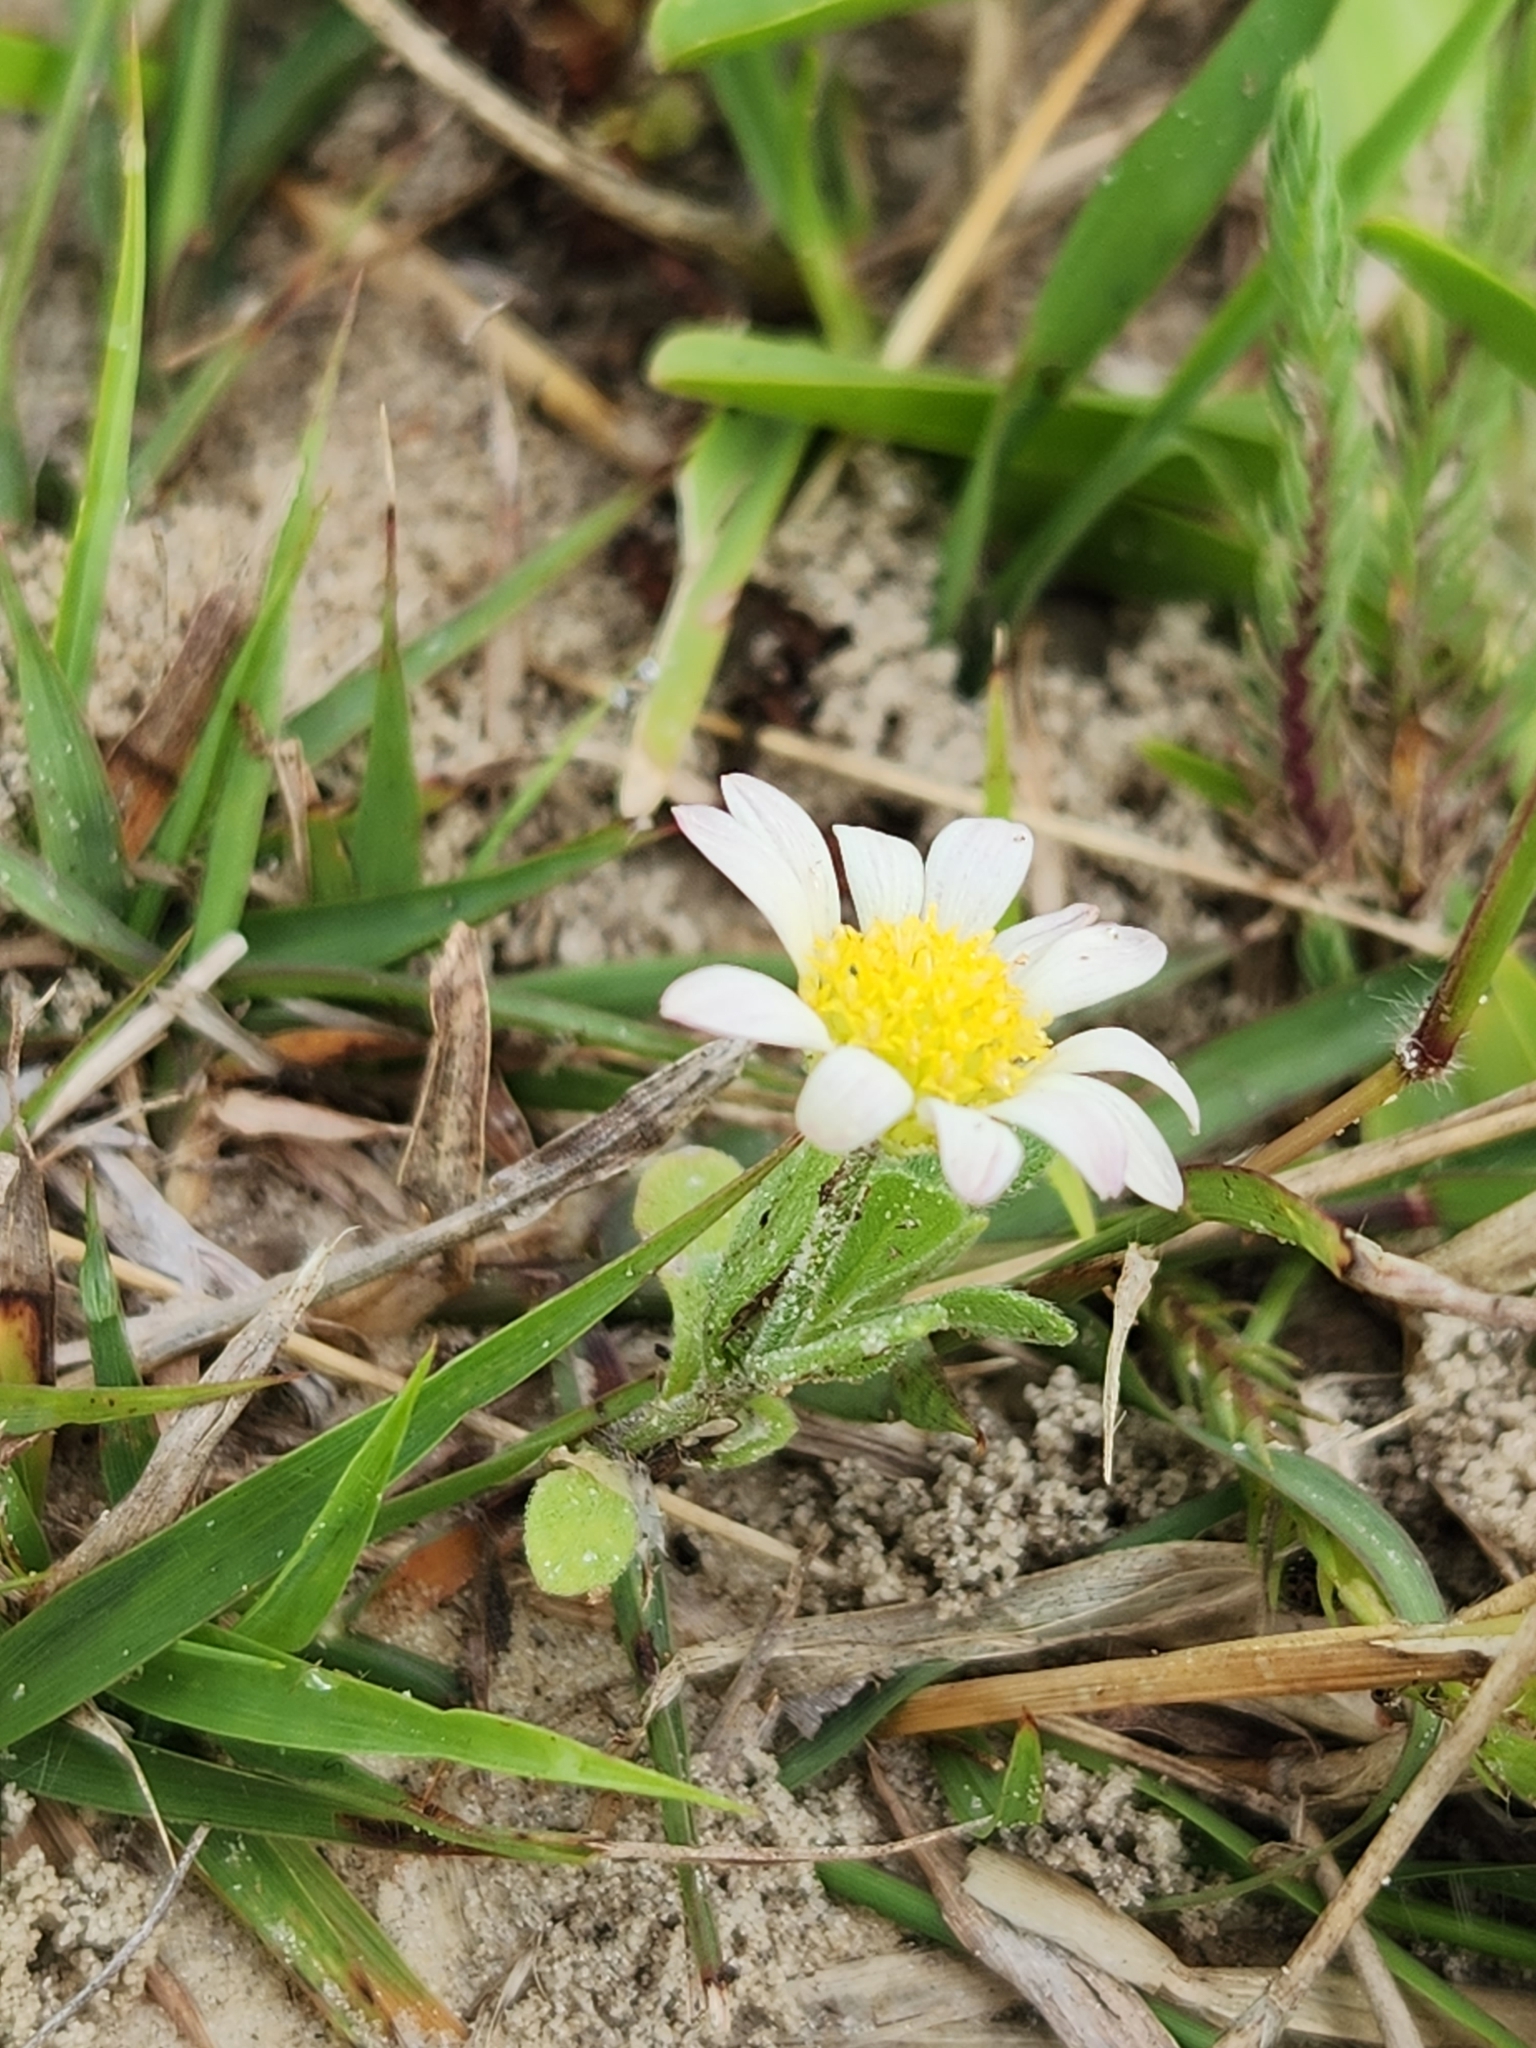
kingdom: Plantae
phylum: Tracheophyta
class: Magnoliopsida
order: Asterales
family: Asteraceae
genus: Astranthium
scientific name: Astranthium ciliatum
